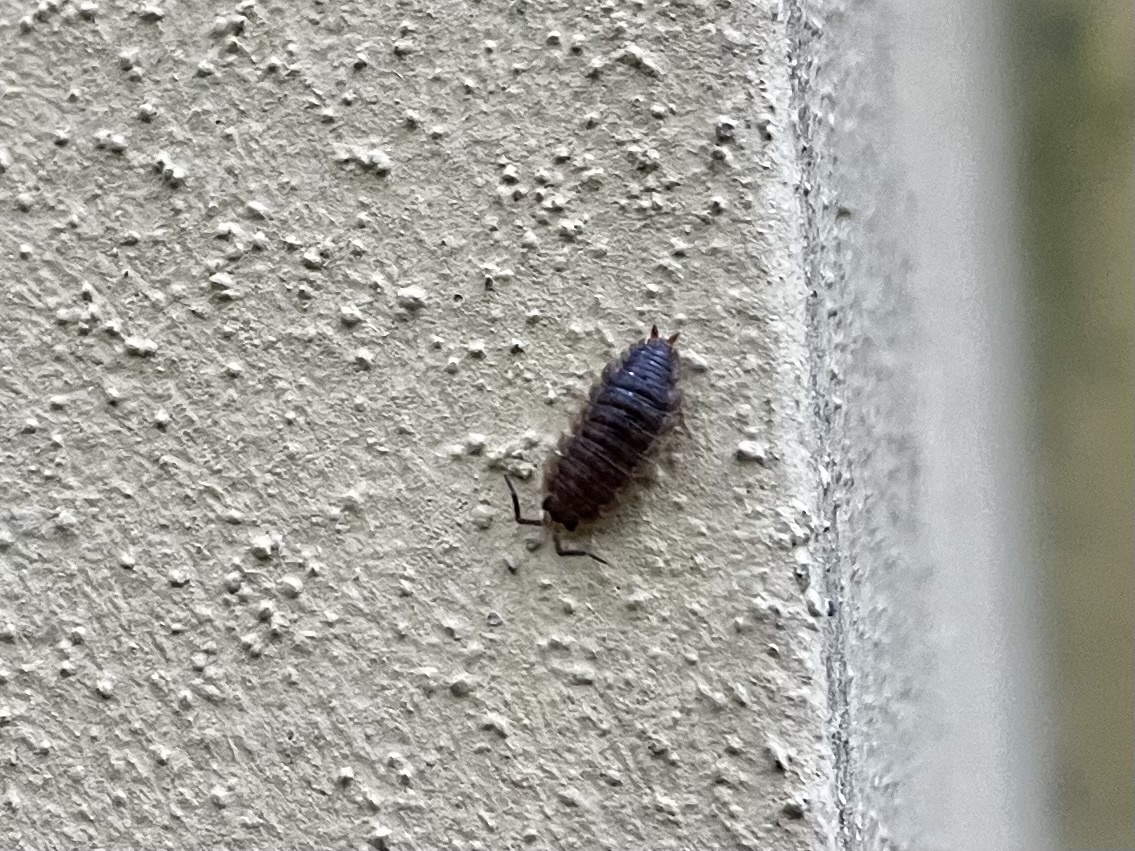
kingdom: Animalia
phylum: Arthropoda
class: Malacostraca
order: Isopoda
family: Porcellionidae
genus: Porcellio
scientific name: Porcellio scaber
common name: Common rough woodlouse
